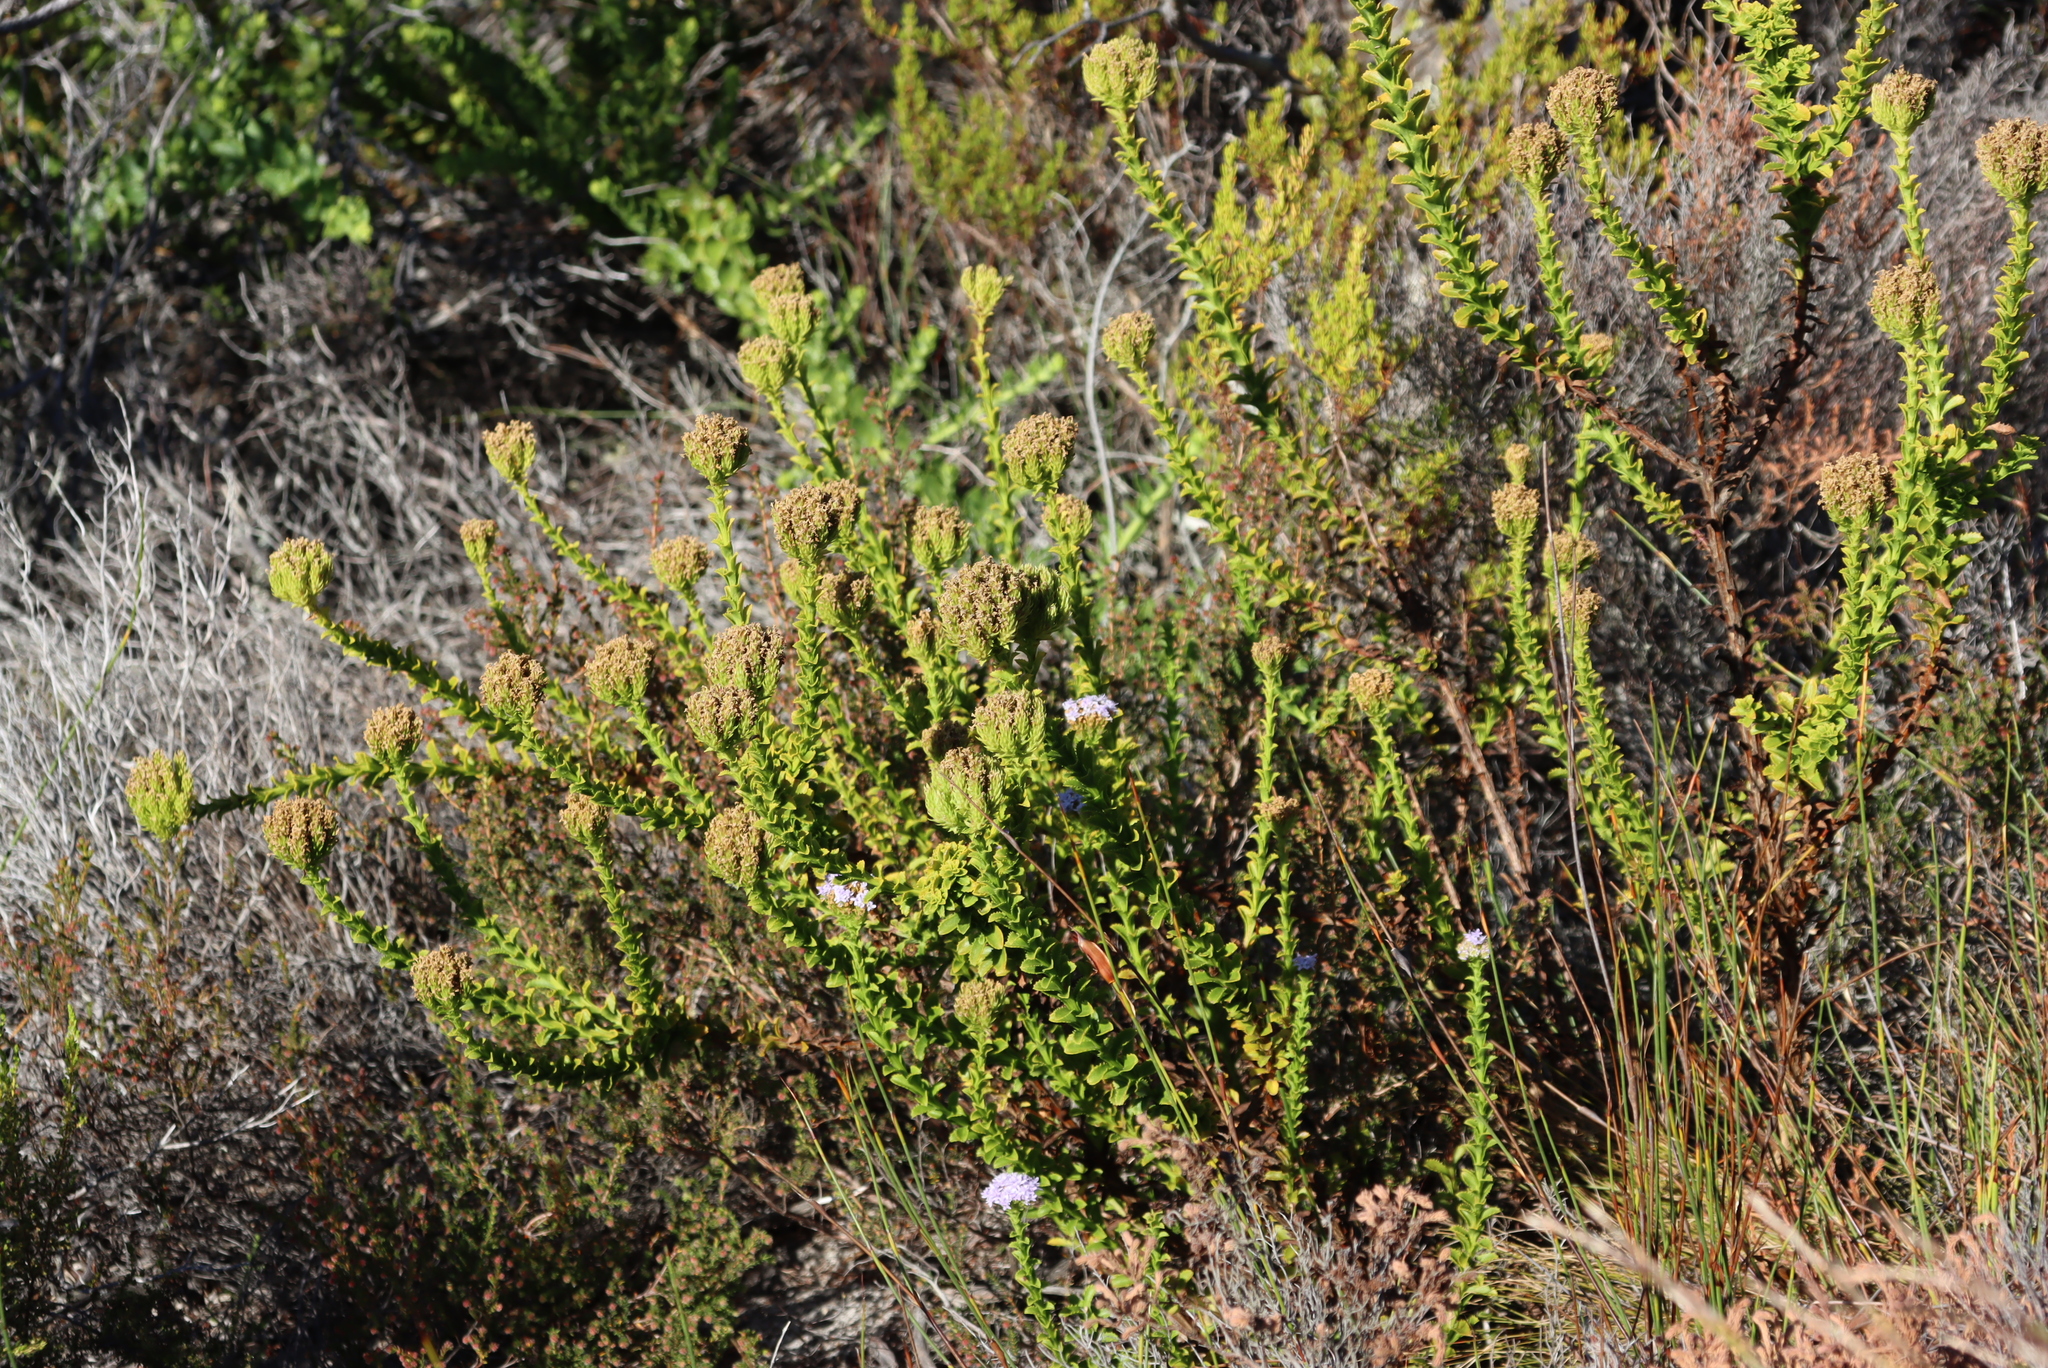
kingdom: Plantae
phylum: Tracheophyta
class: Magnoliopsida
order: Lamiales
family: Scrophulariaceae
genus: Pseudoselago
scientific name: Pseudoselago serrata
